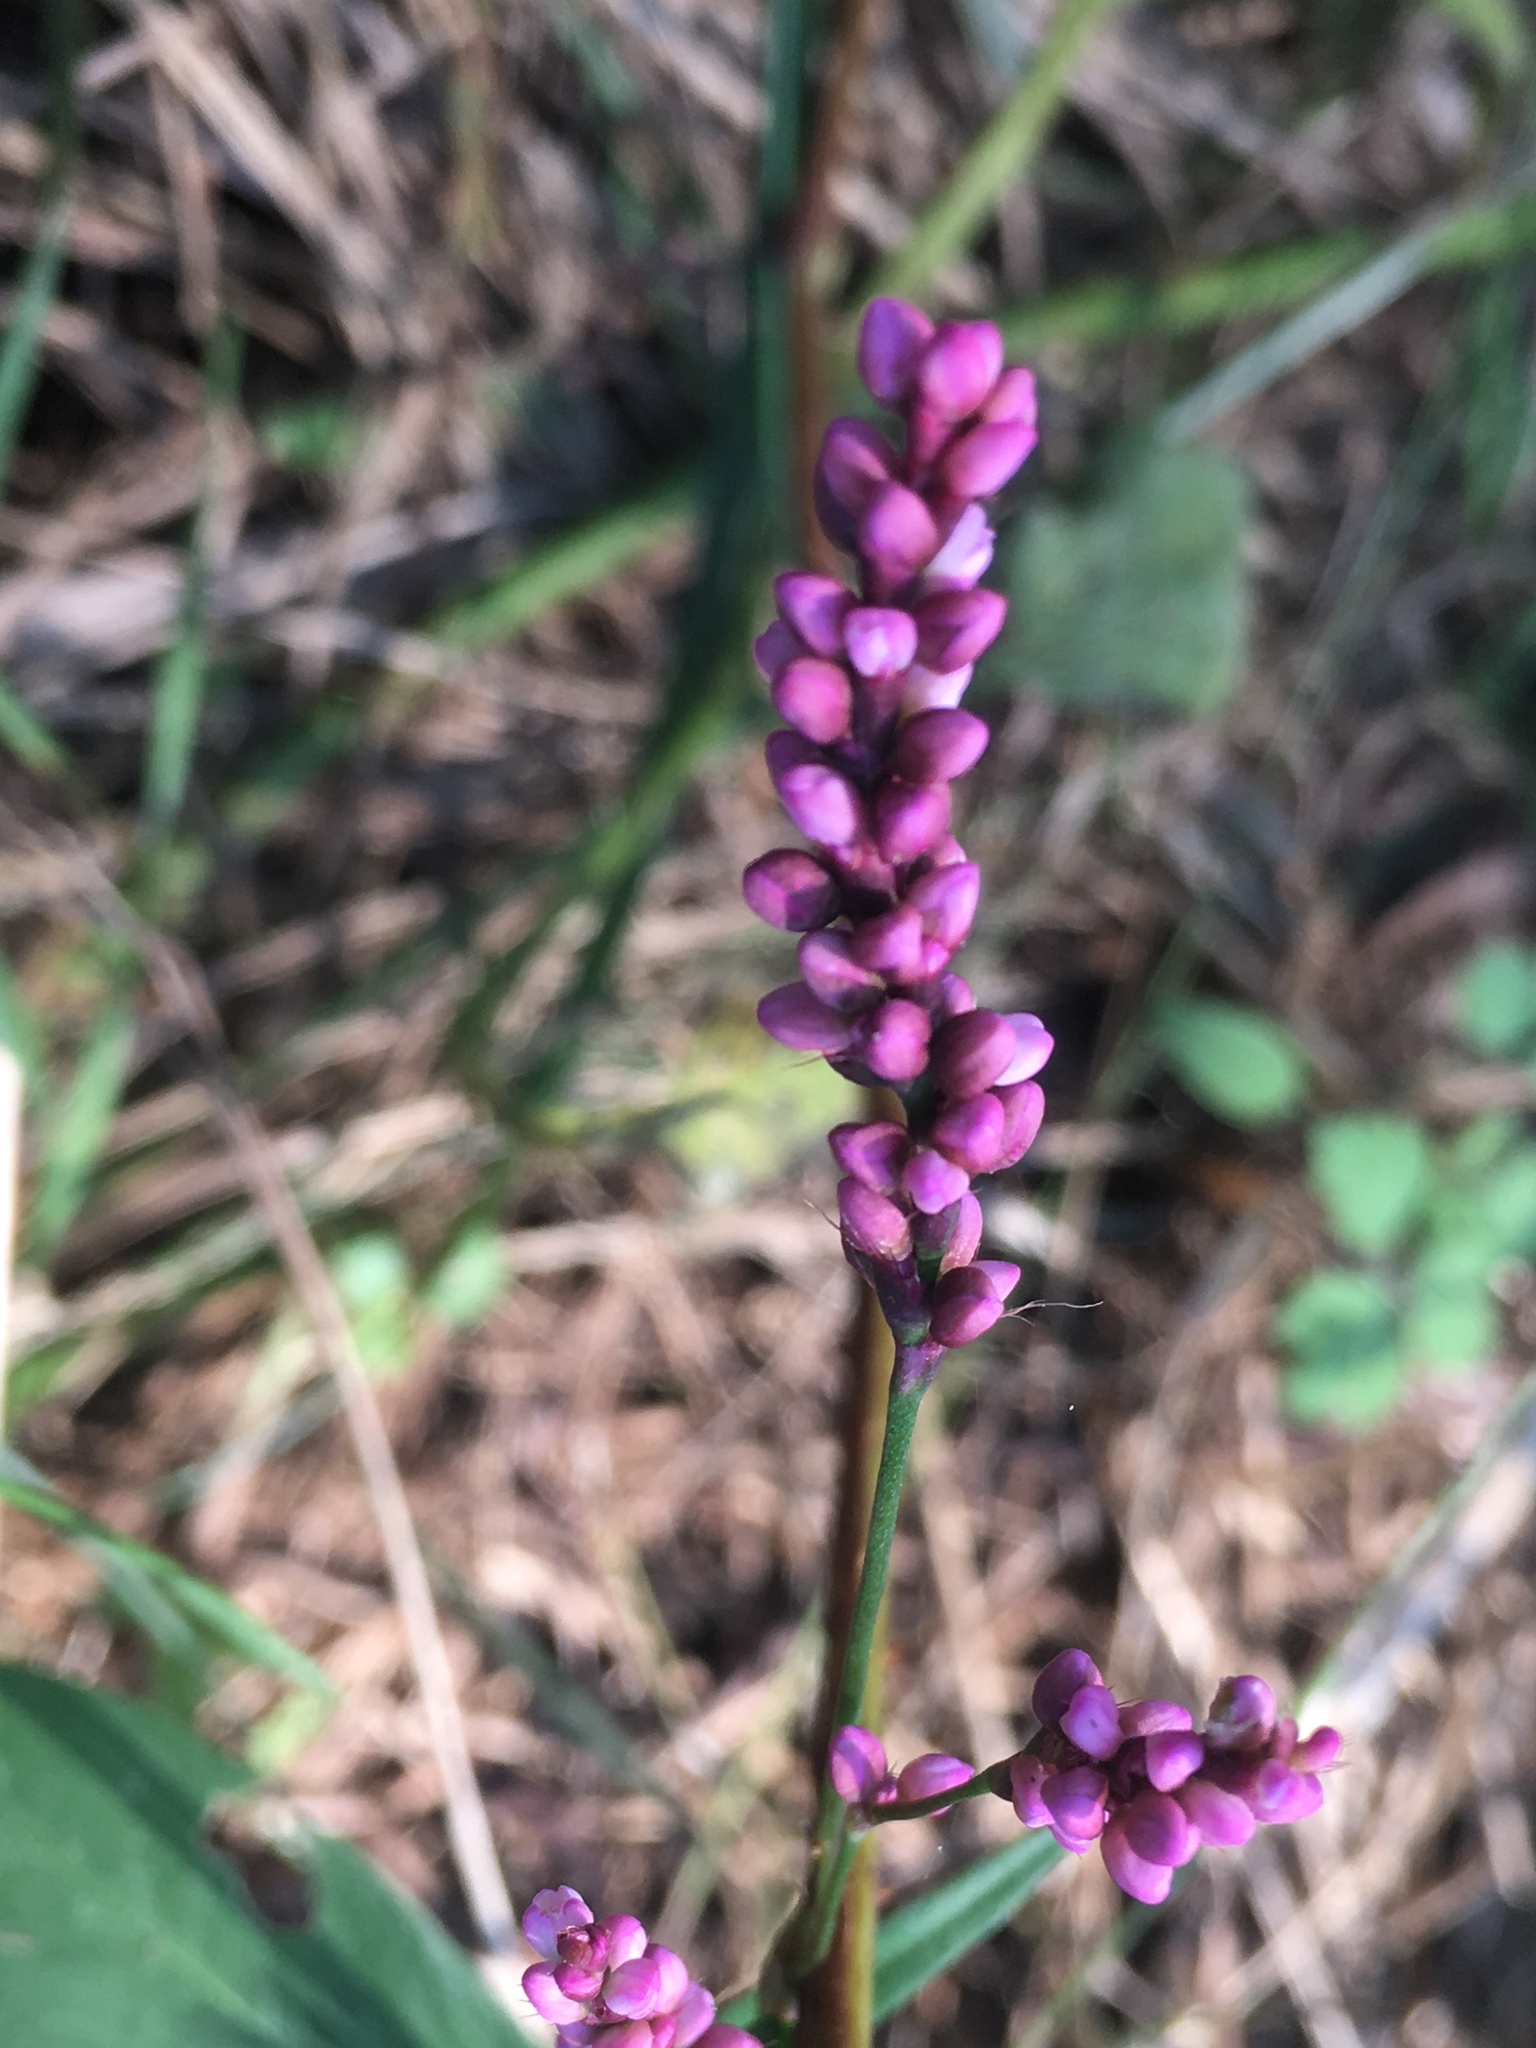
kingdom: Plantae
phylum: Tracheophyta
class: Magnoliopsida
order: Caryophyllales
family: Polygonaceae
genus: Persicaria
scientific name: Persicaria longiseta
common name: Bristly lady's-thumb
